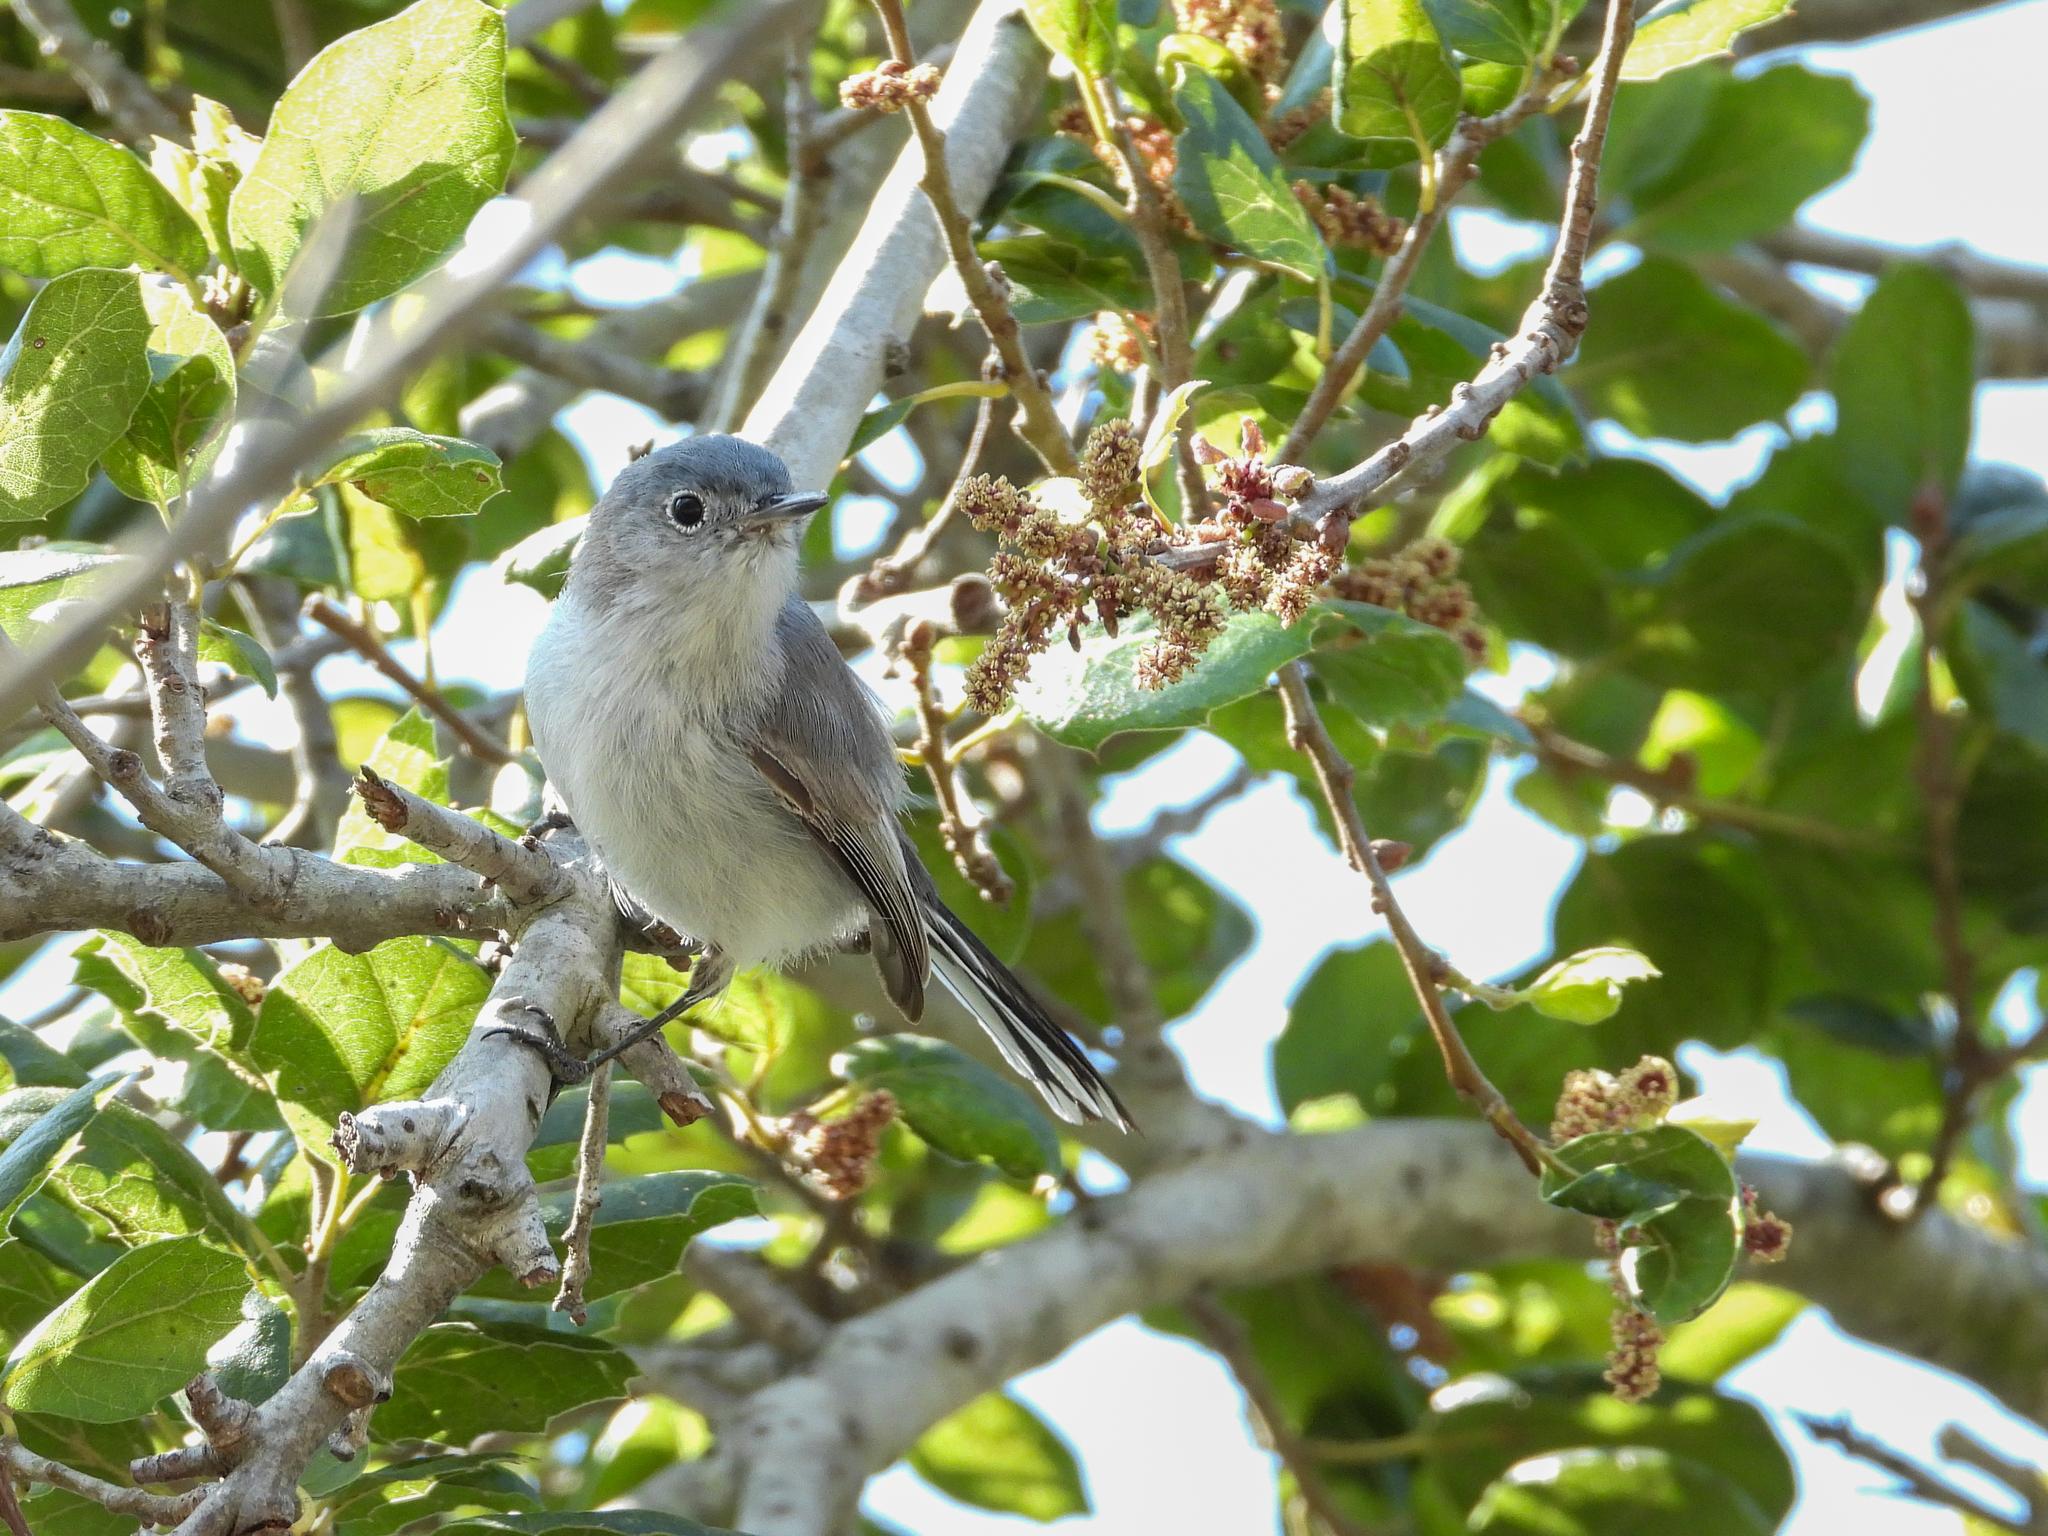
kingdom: Animalia
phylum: Chordata
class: Aves
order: Passeriformes
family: Polioptilidae
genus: Polioptila
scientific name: Polioptila caerulea
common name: Blue-gray gnatcatcher
